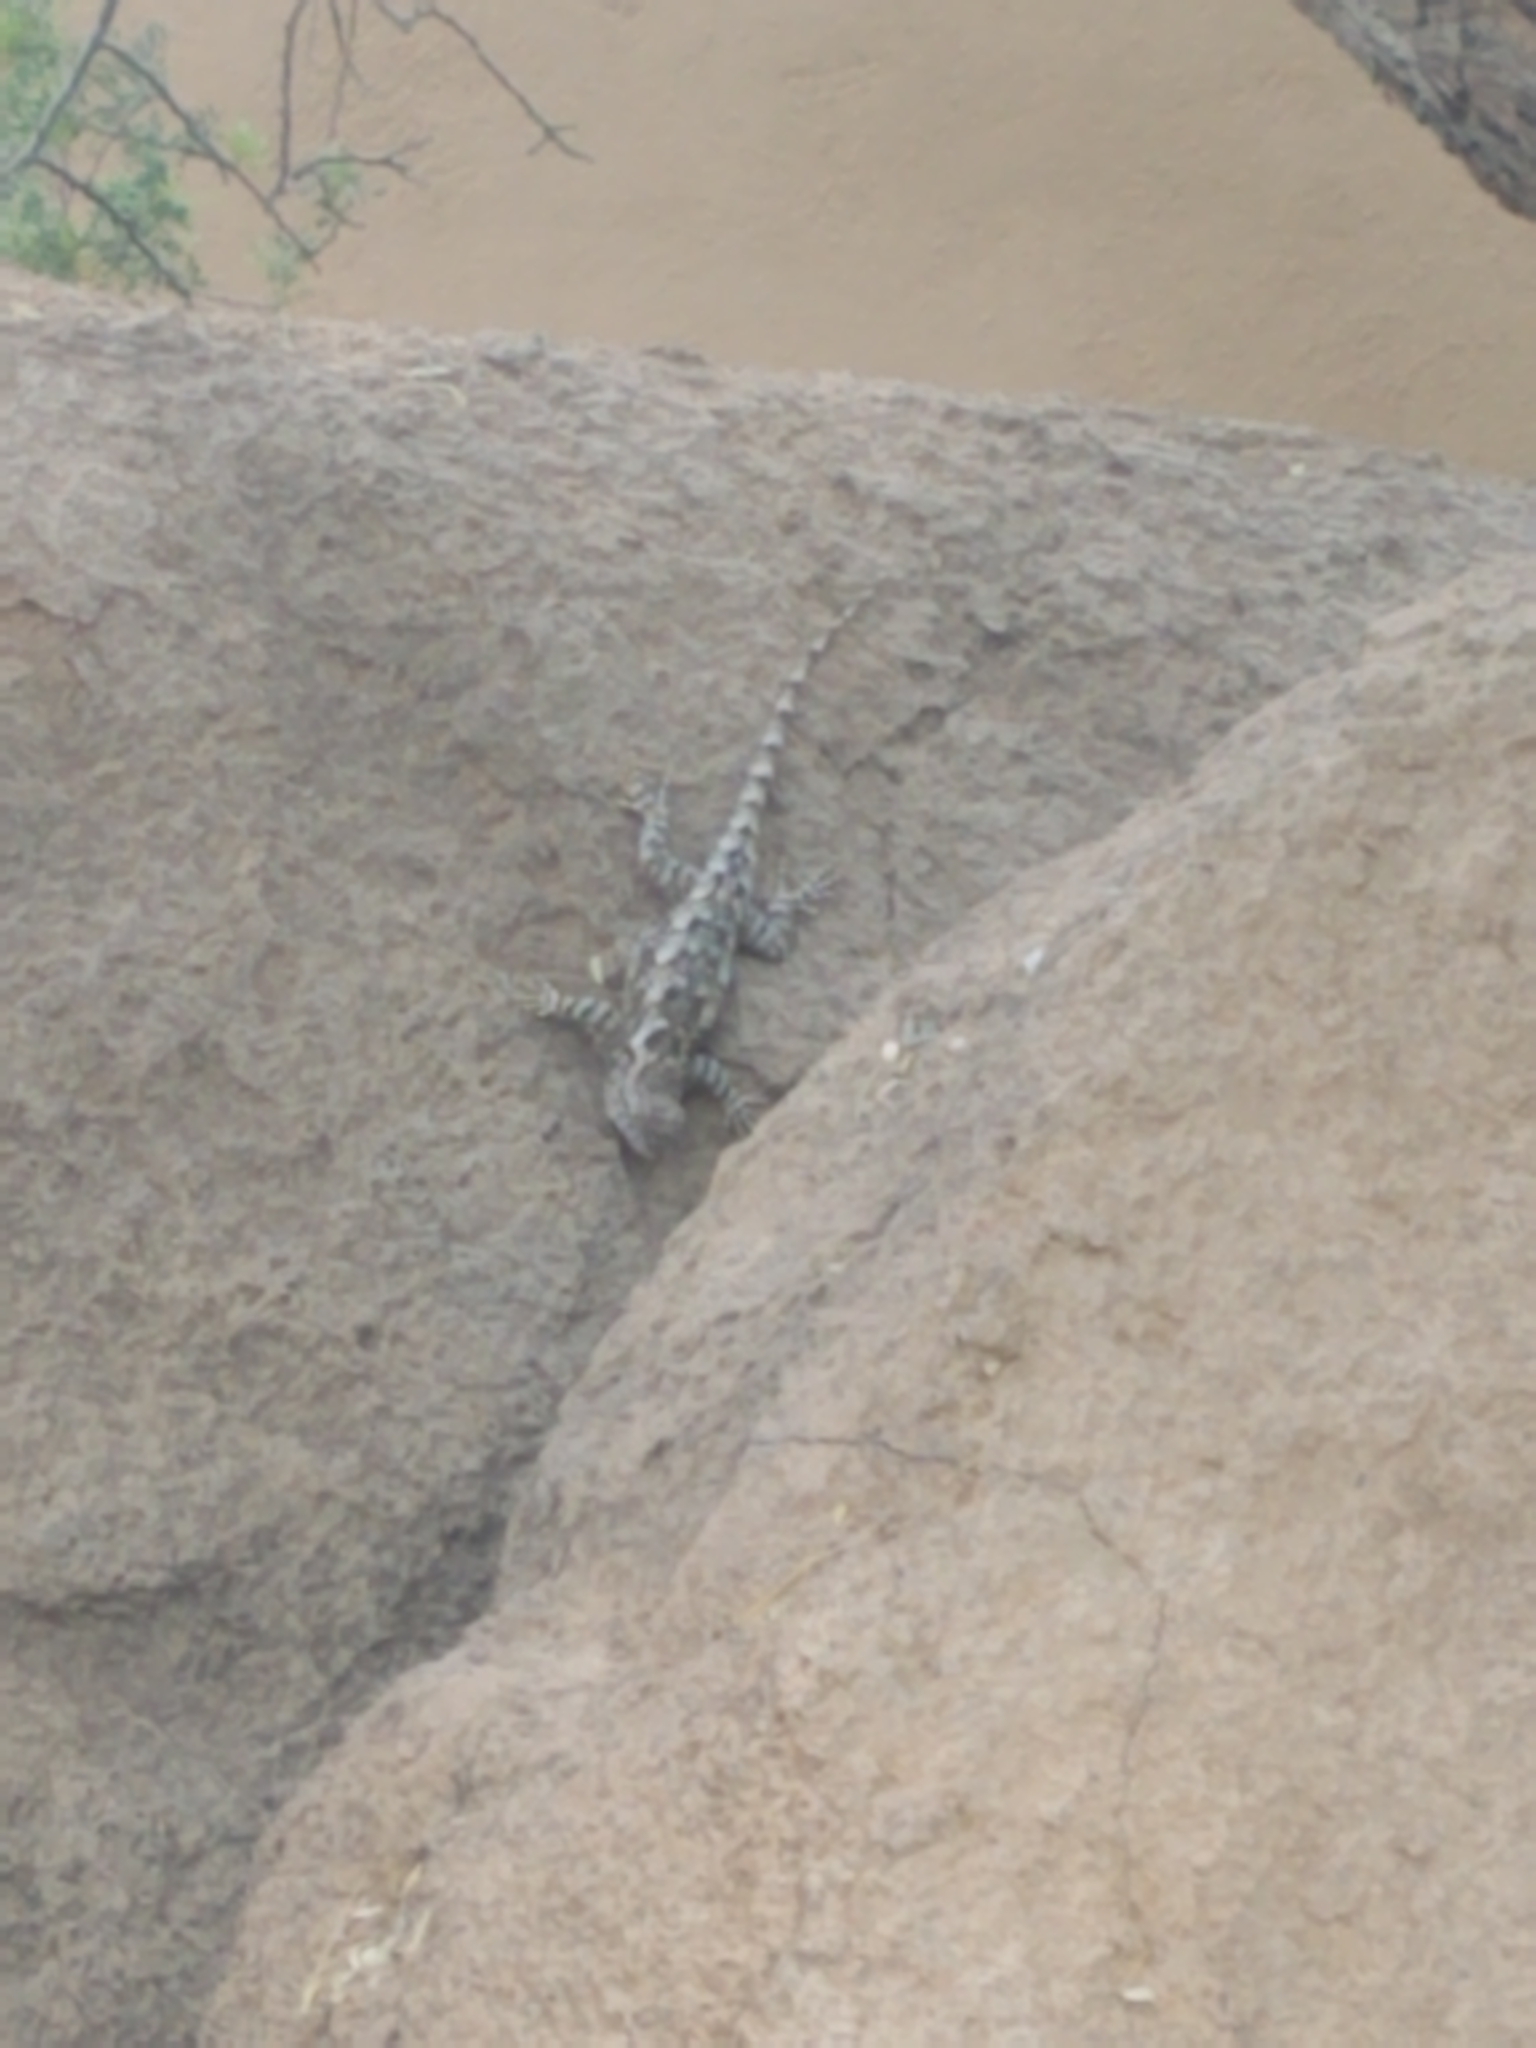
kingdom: Animalia
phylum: Chordata
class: Squamata
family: Phrynosomatidae
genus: Sceloporus
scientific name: Sceloporus clarkii
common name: Clark's spiny lizard
